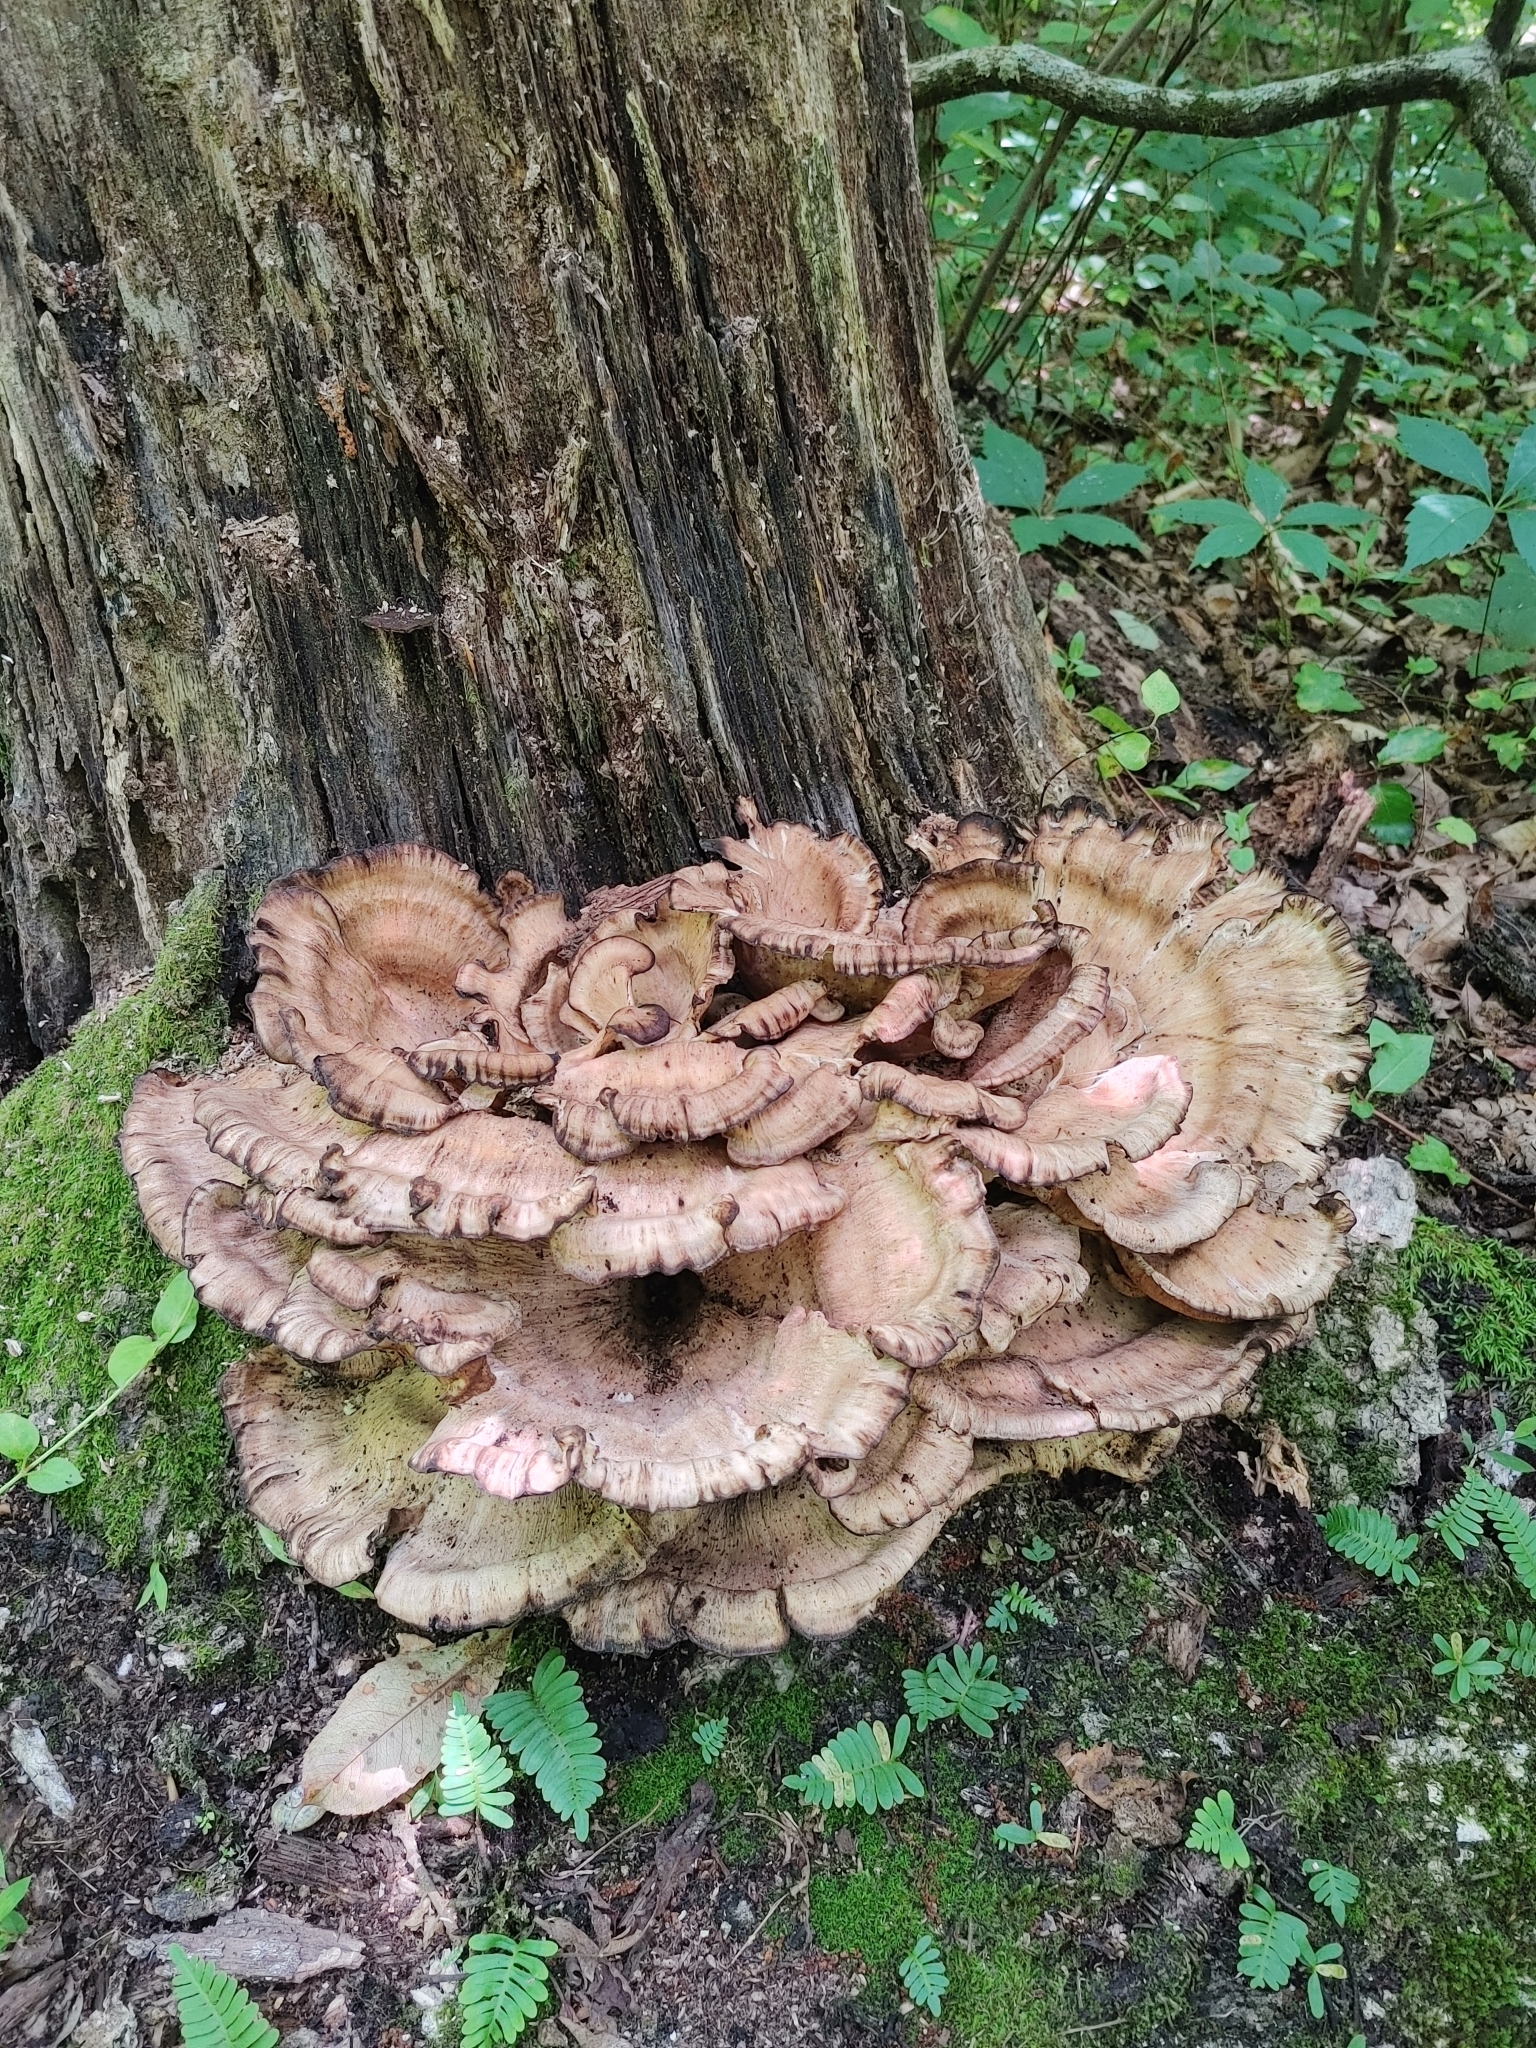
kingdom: Fungi
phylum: Basidiomycota
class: Agaricomycetes
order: Polyporales
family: Meripilaceae
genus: Meripilus
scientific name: Meripilus sumstinei
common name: Black-staining polypore
